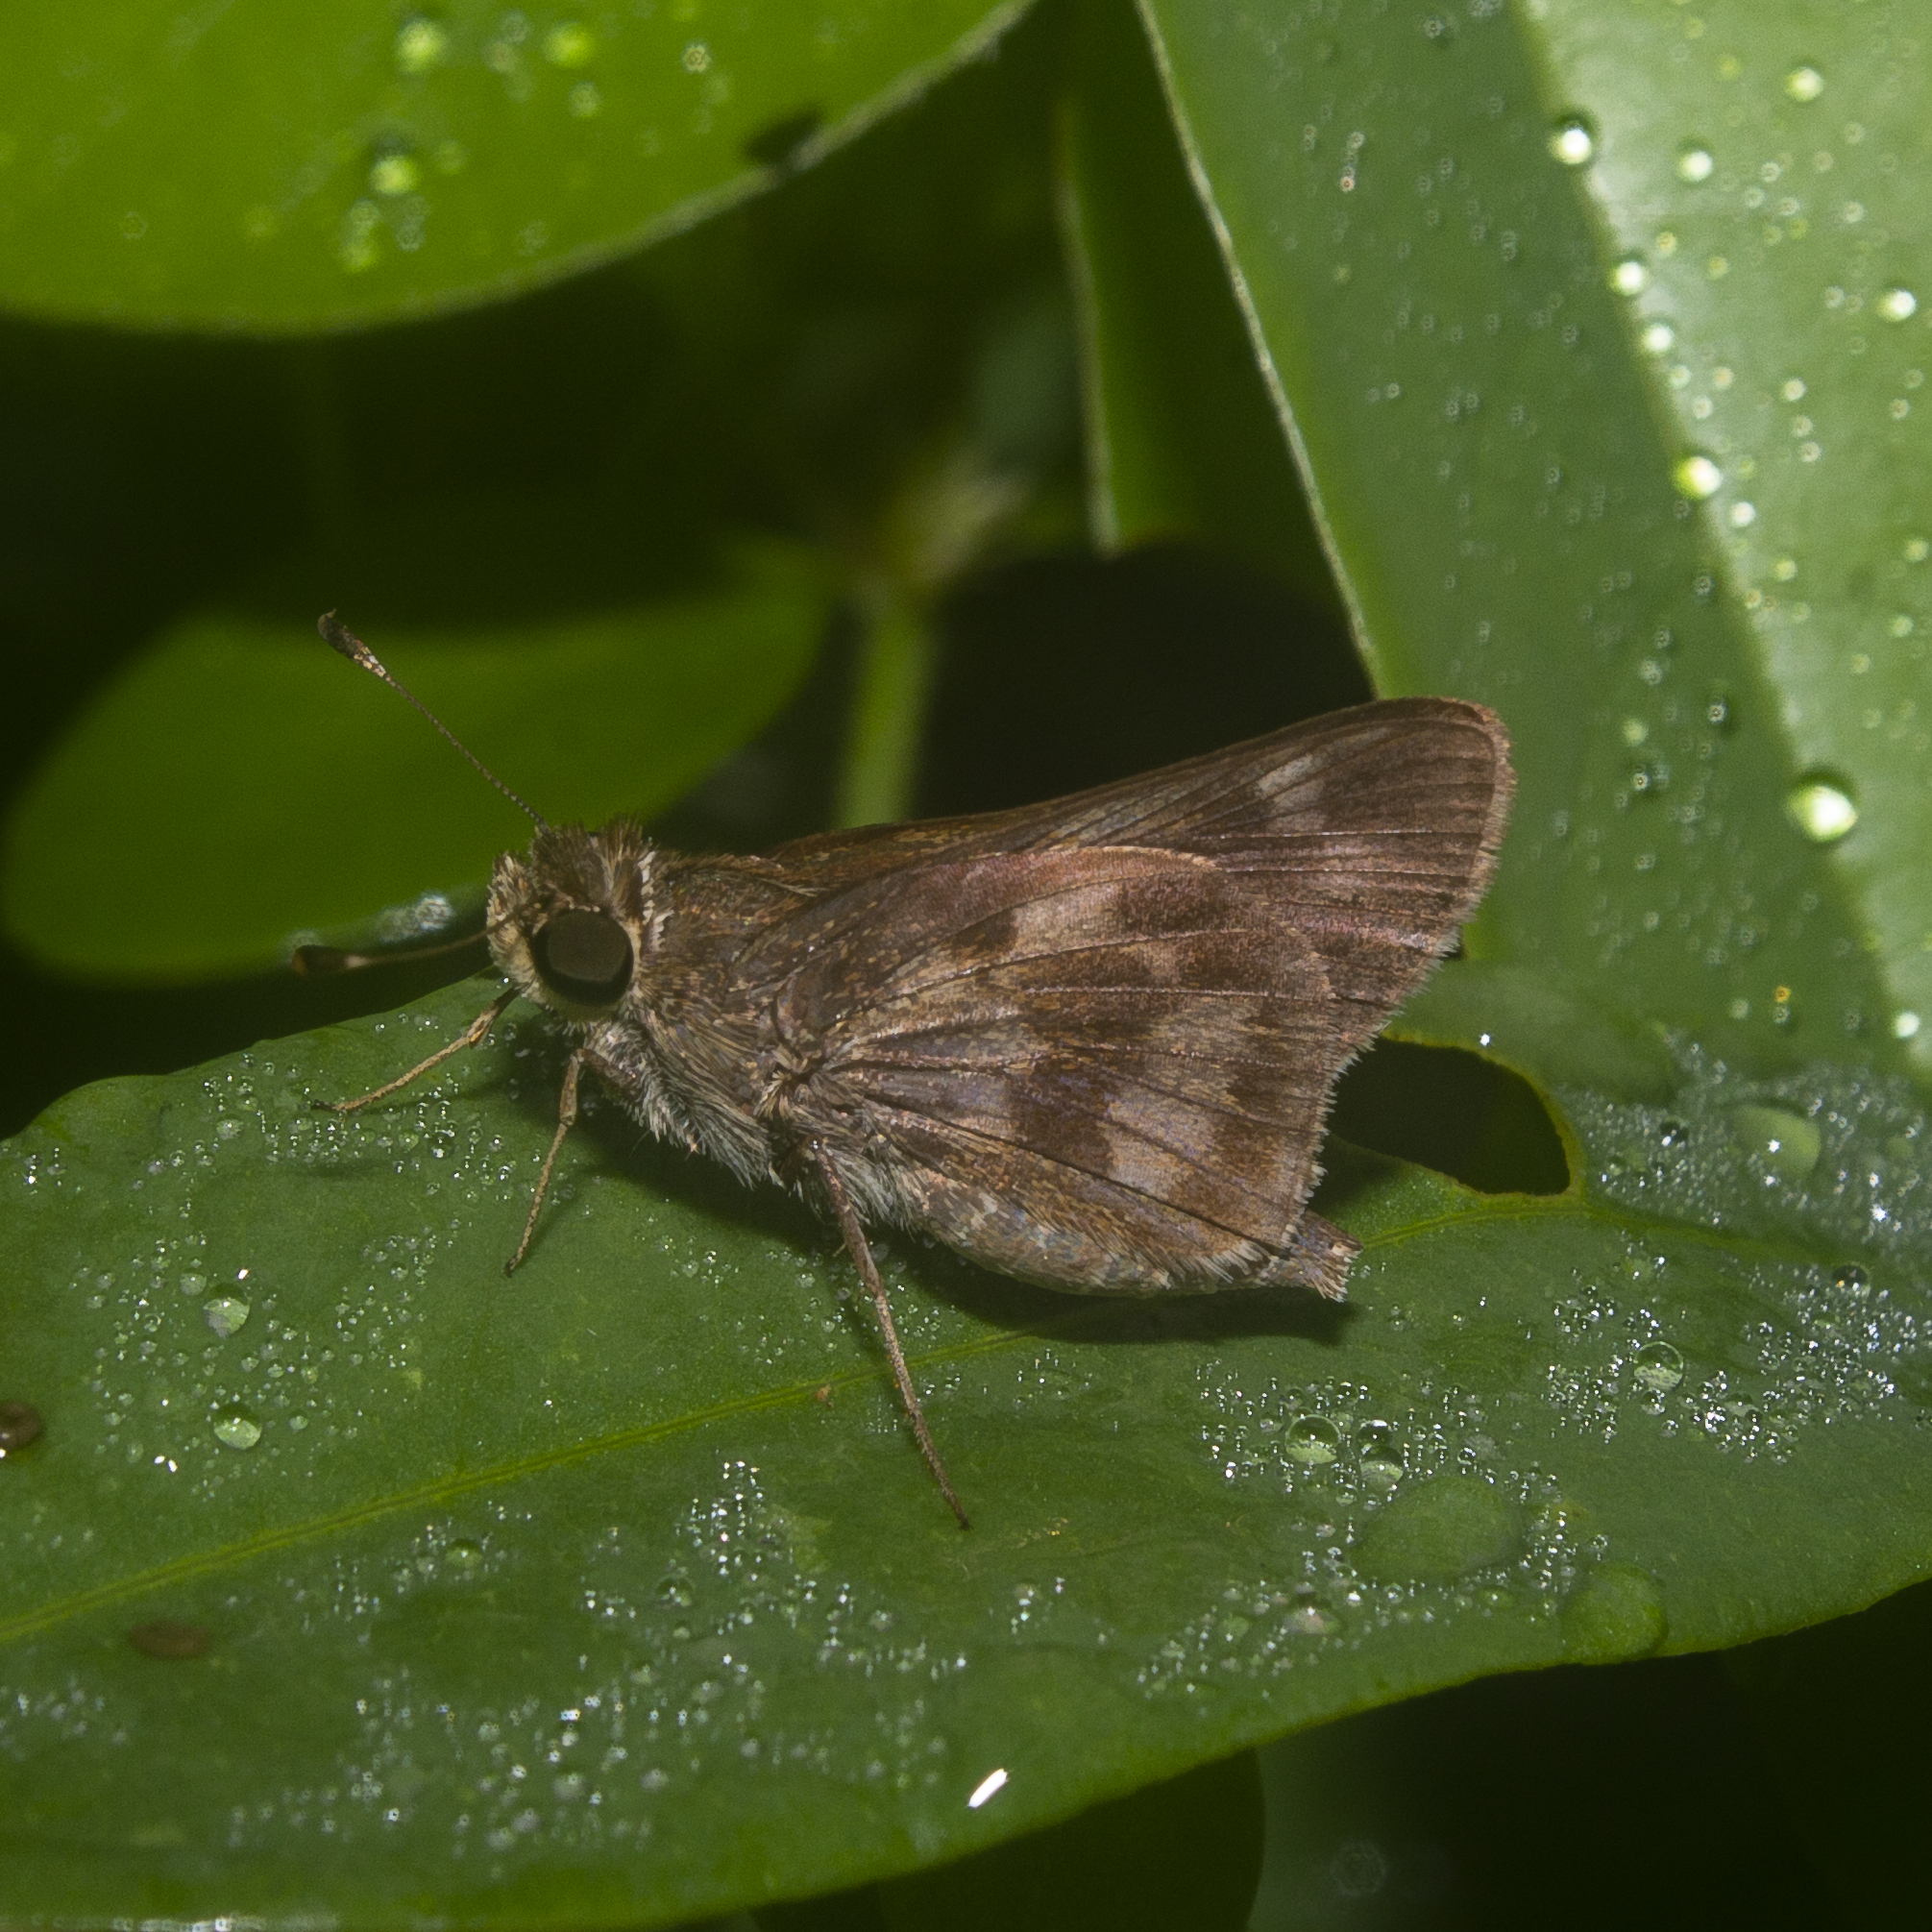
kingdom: Animalia
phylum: Arthropoda
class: Insecta
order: Lepidoptera
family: Hesperiidae
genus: Pompeius
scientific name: Pompeius pompeius
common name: Pompeius skipper
